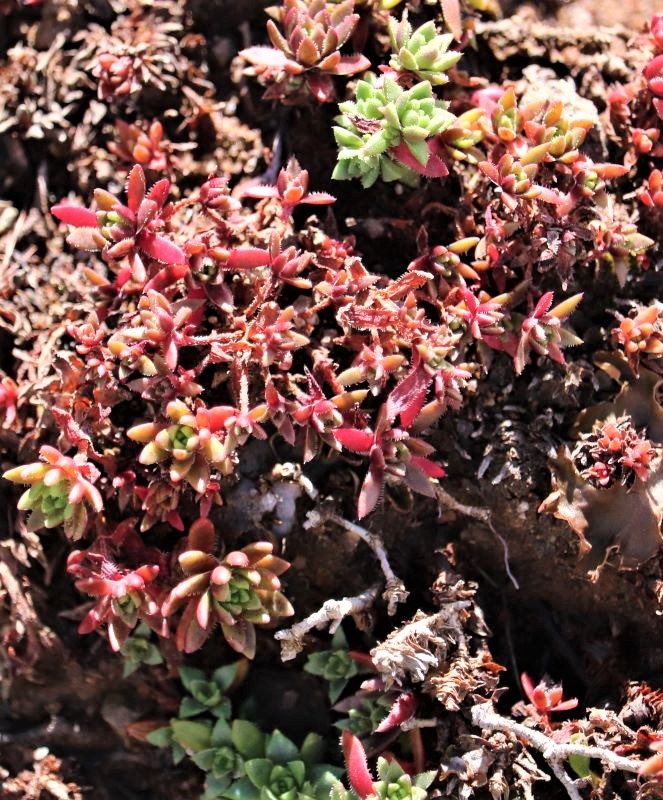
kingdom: Plantae
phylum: Tracheophyta
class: Magnoliopsida
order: Saxifragales
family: Crassulaceae
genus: Crassula
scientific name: Crassula setulosa
